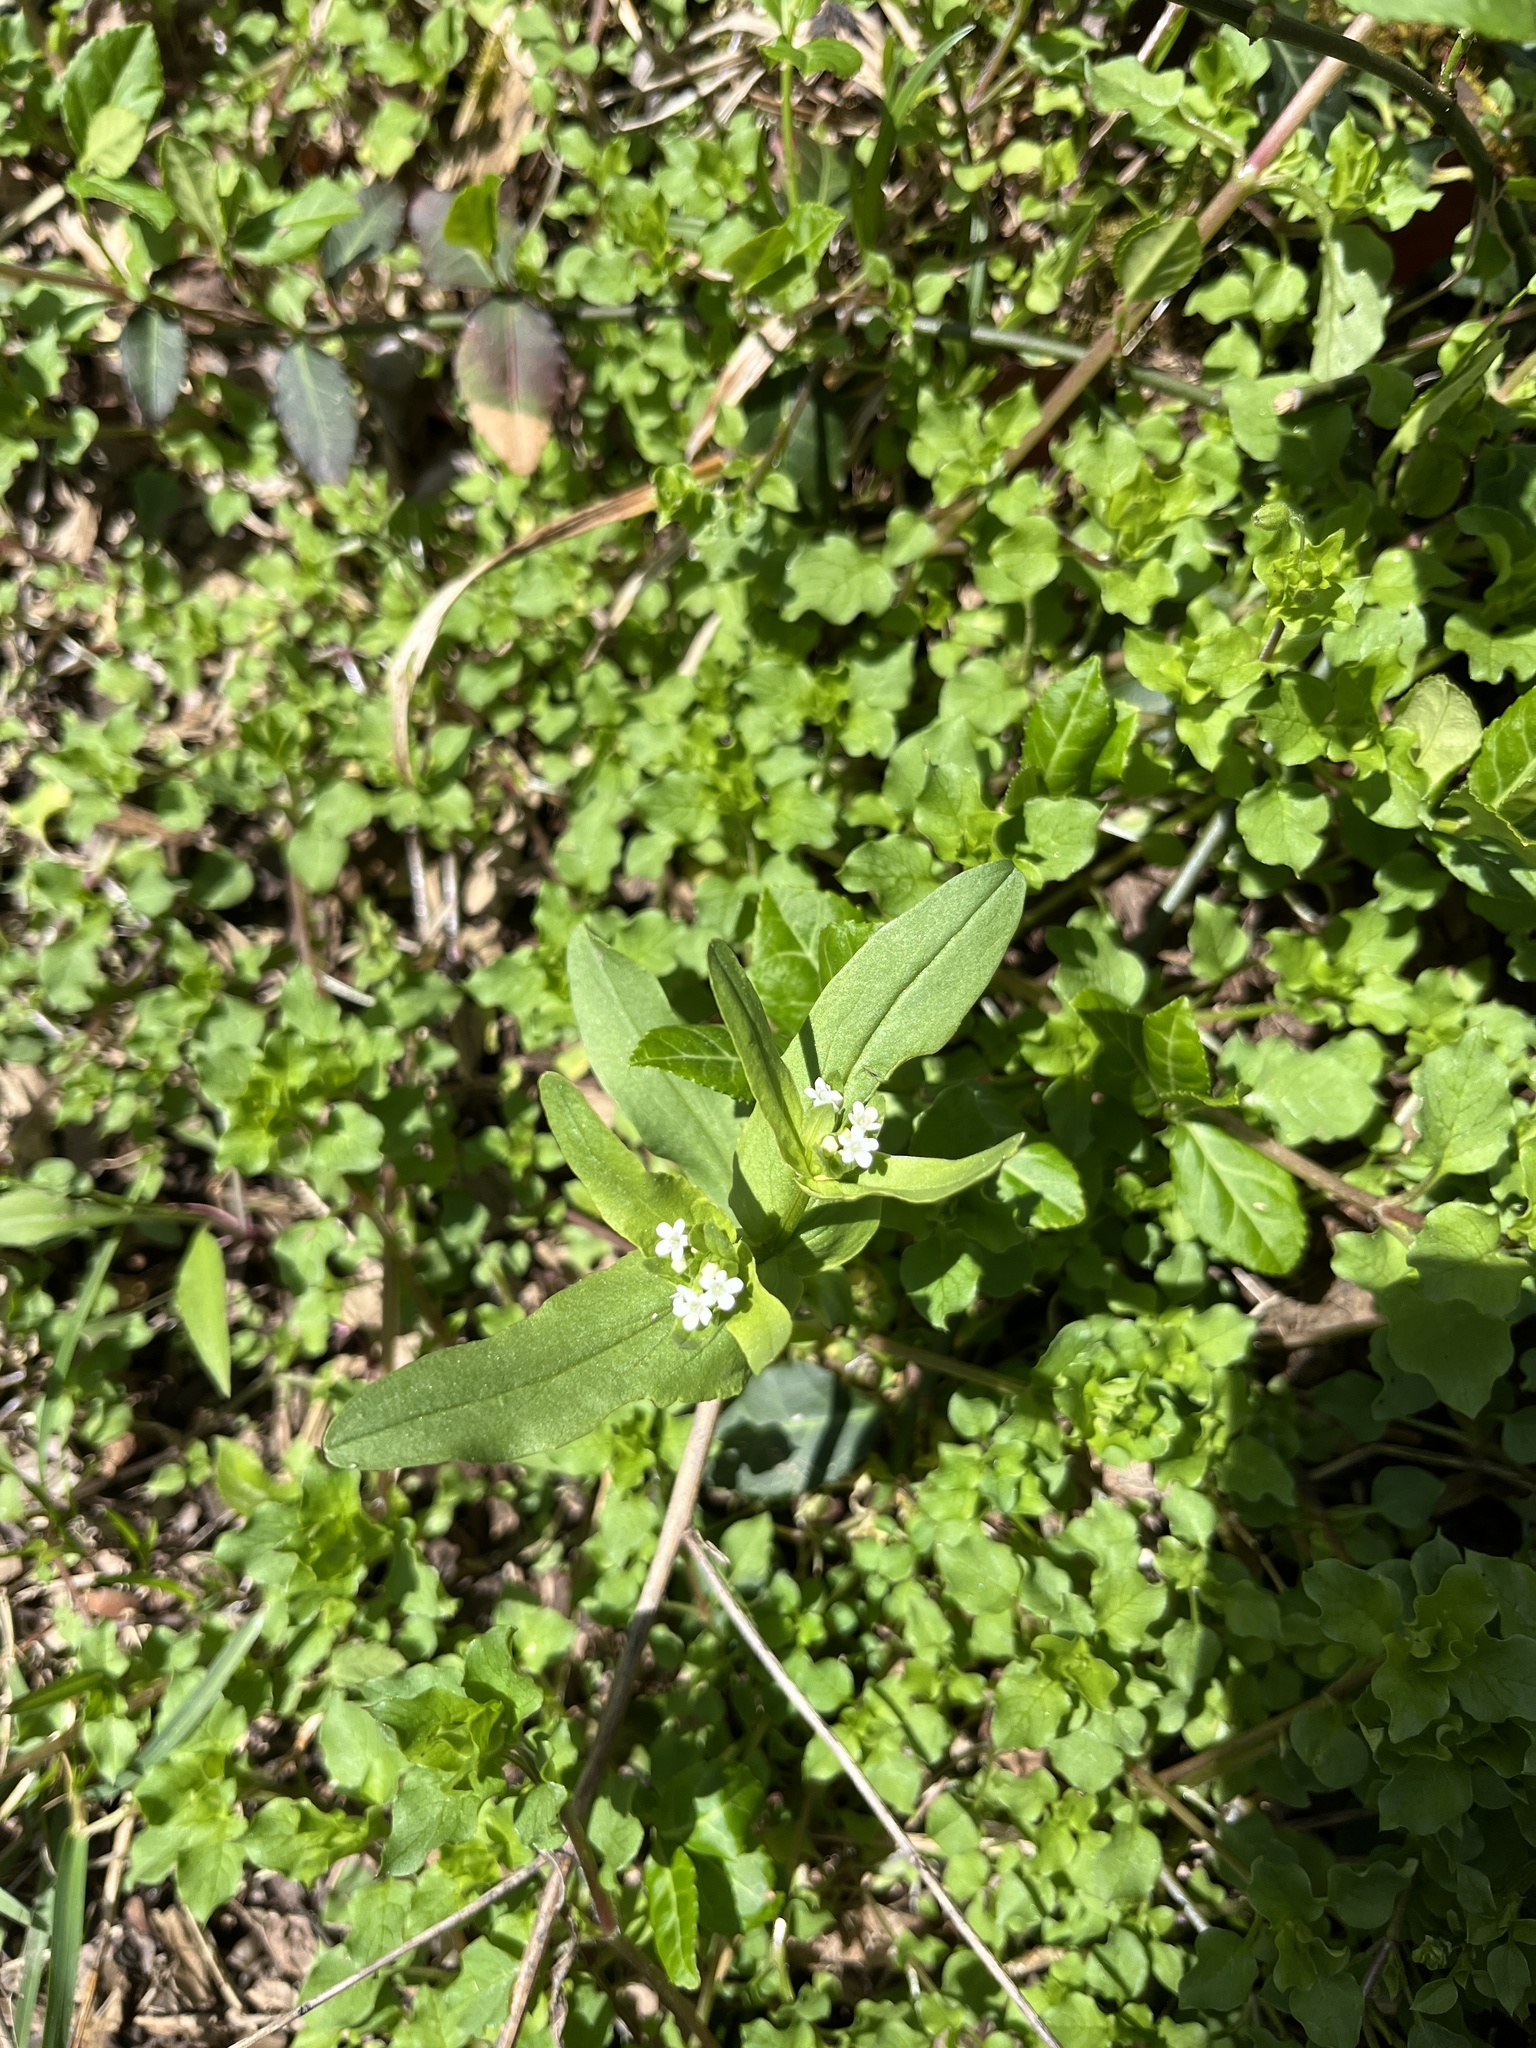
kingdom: Plantae
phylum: Tracheophyta
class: Magnoliopsida
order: Dipsacales
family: Caprifoliaceae
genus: Valerianella
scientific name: Valerianella radiata
